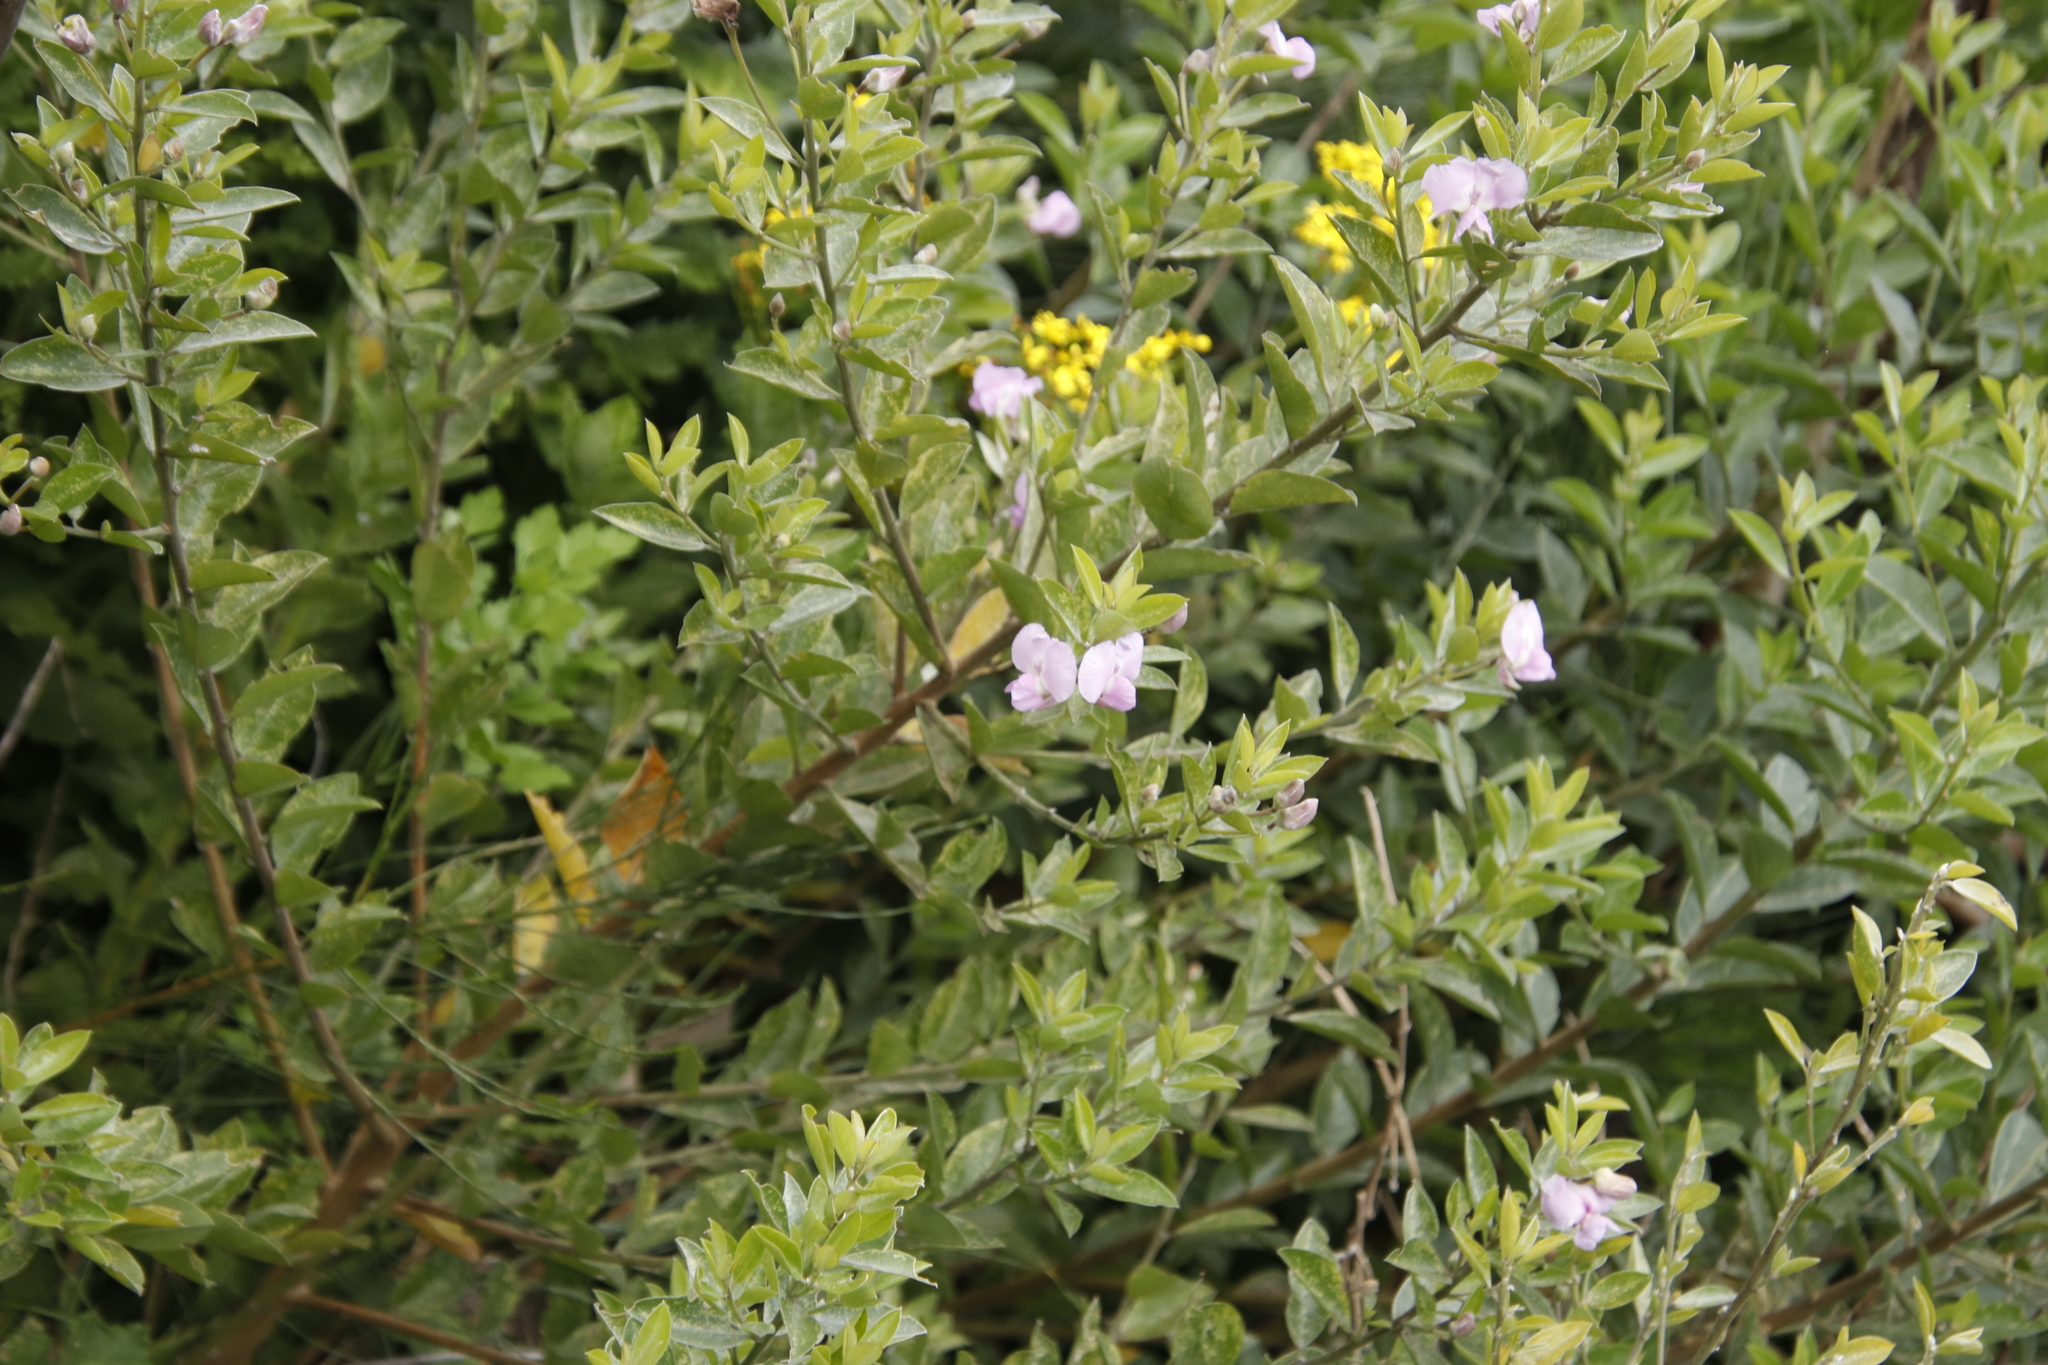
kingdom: Plantae
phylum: Tracheophyta
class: Magnoliopsida
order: Fabales
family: Fabaceae
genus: Podalyria
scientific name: Podalyria calyptrata
